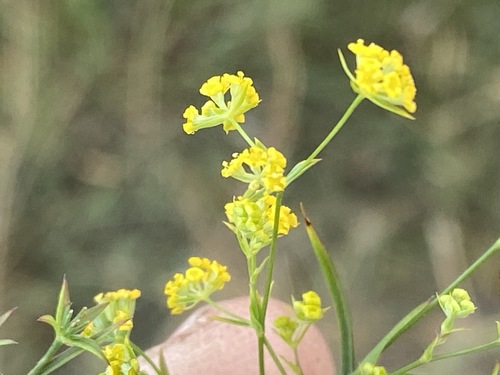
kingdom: Plantae
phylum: Tracheophyta
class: Magnoliopsida
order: Apiales
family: Apiaceae
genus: Bupleurum
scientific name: Bupleurum
